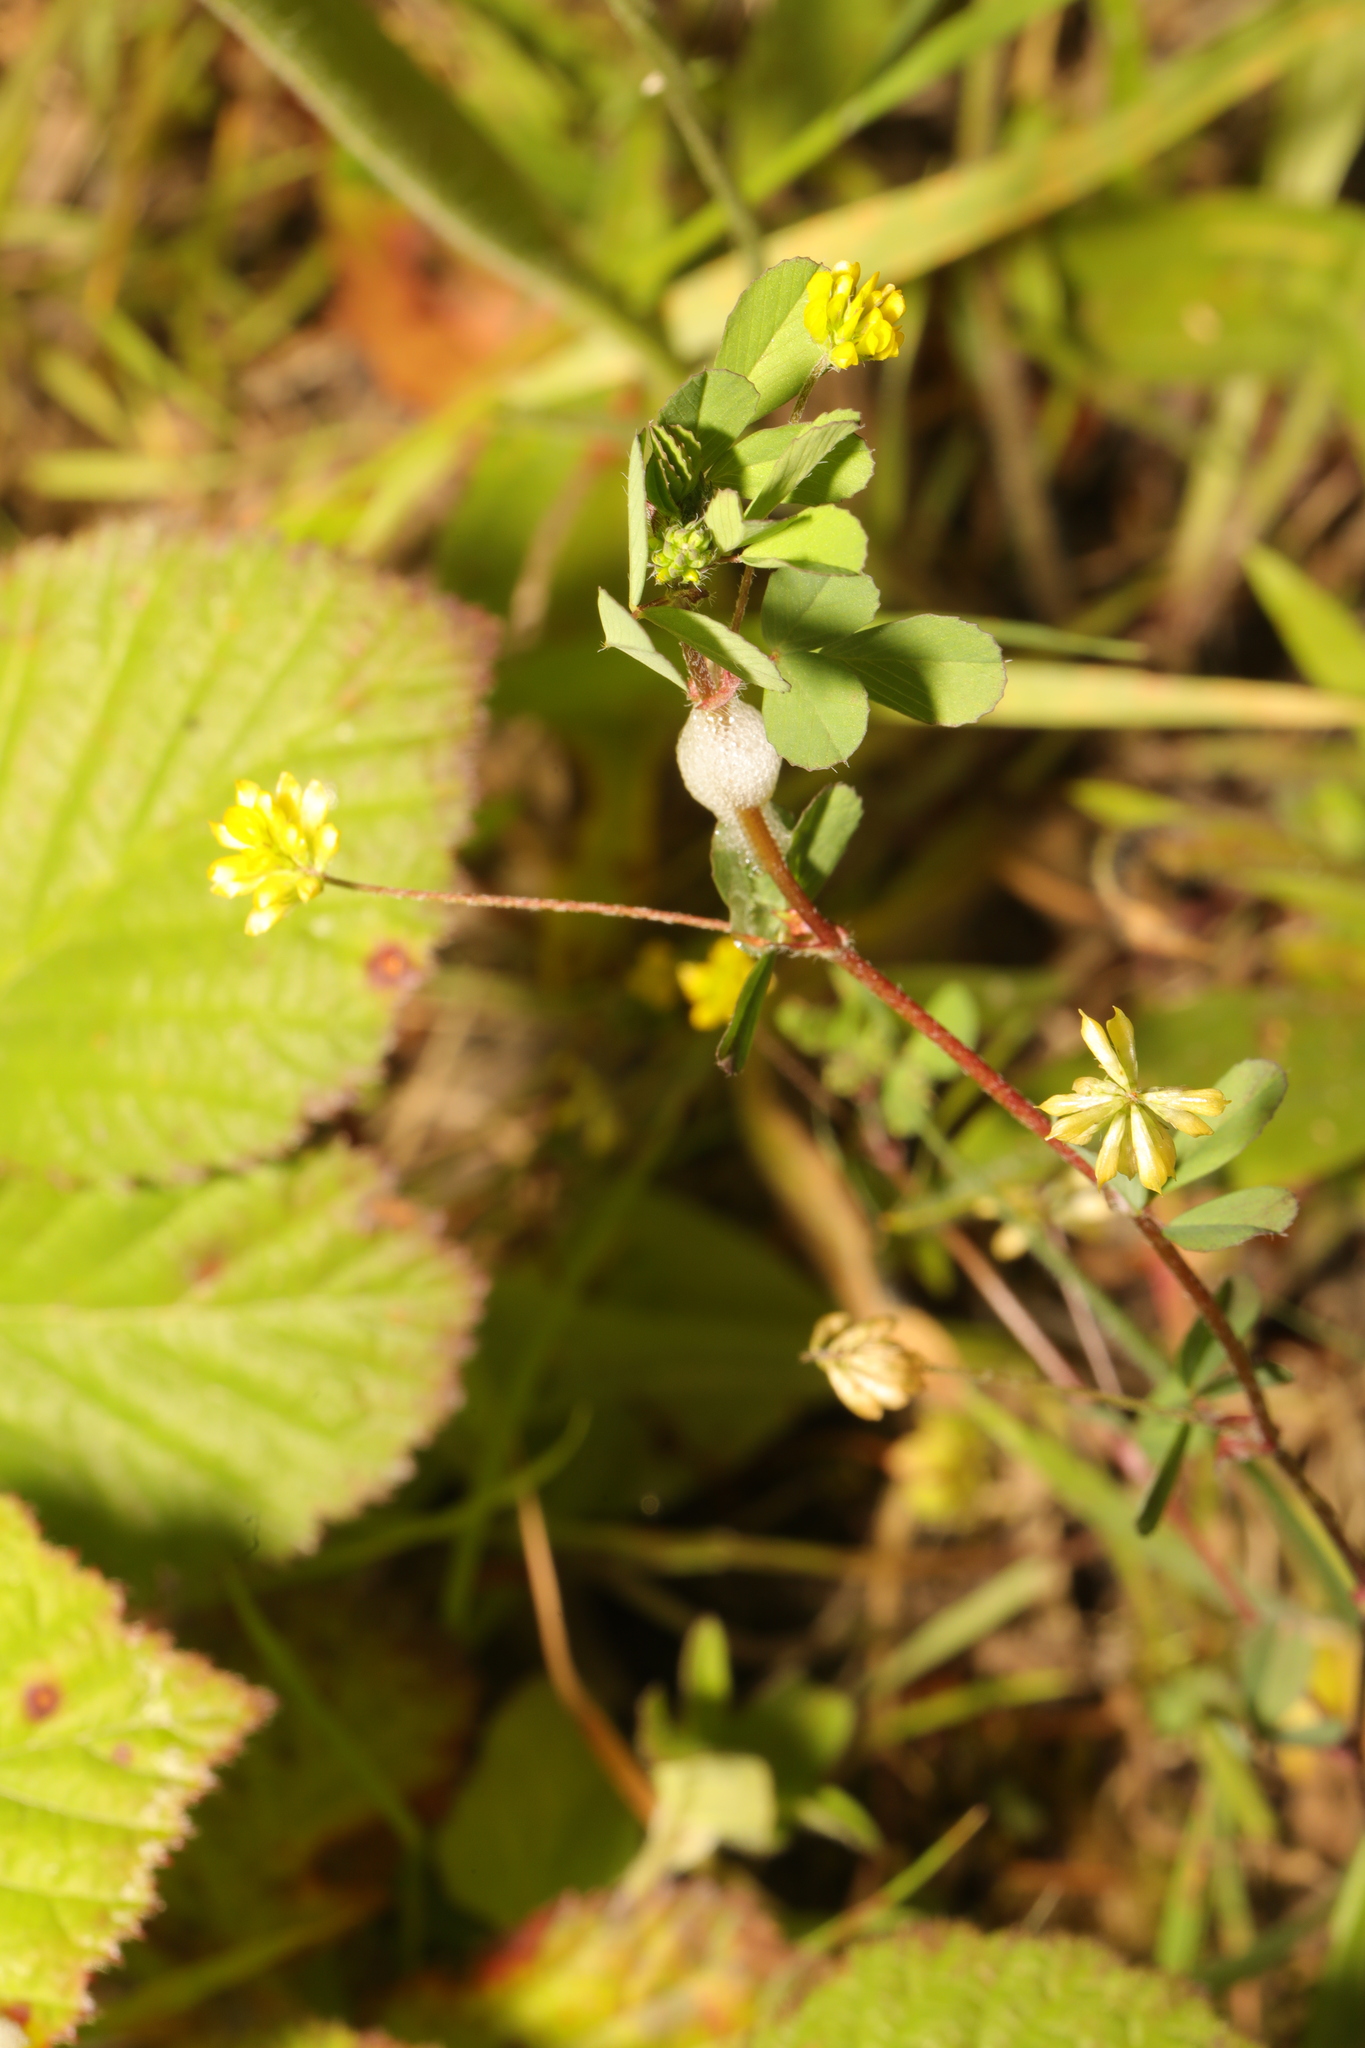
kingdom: Plantae
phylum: Tracheophyta
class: Magnoliopsida
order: Fabales
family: Fabaceae
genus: Trifolium
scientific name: Trifolium dubium
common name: Suckling clover
